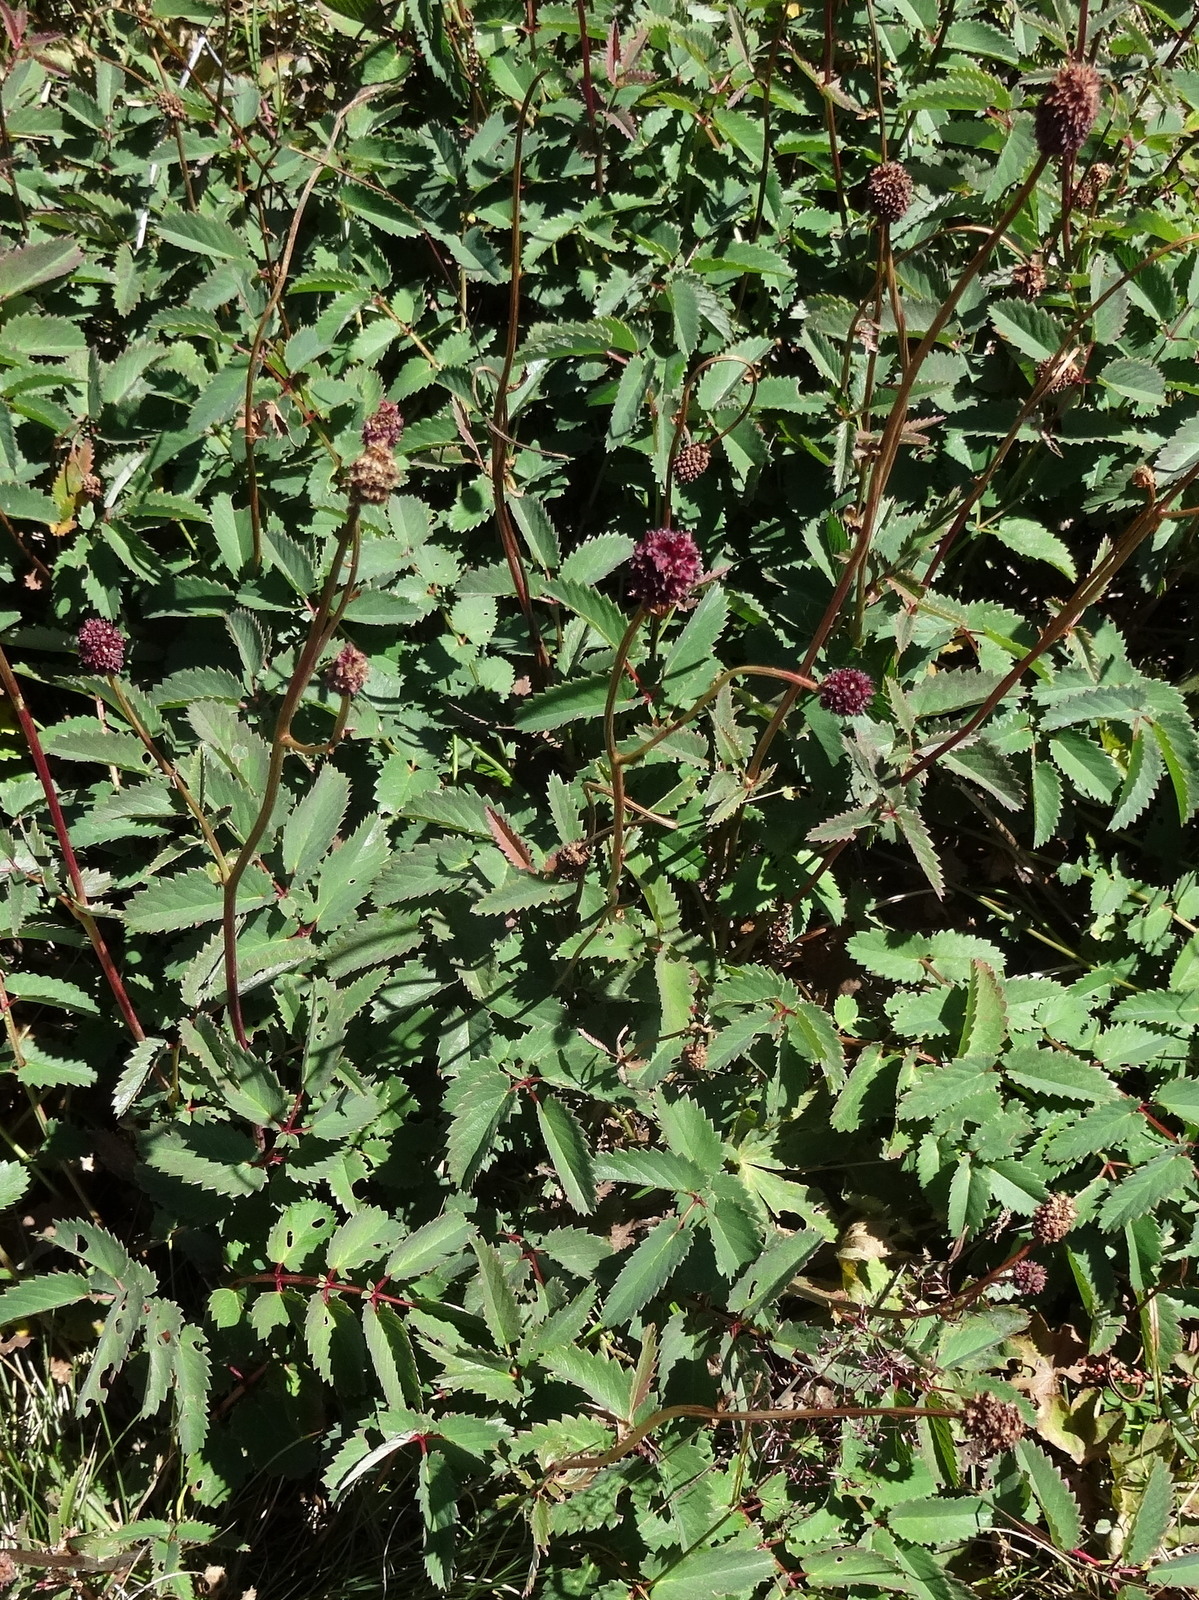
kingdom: Plantae
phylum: Tracheophyta
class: Magnoliopsida
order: Rosales
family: Rosaceae
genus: Sanguisorba
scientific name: Sanguisorba officinalis
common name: Great burnet
